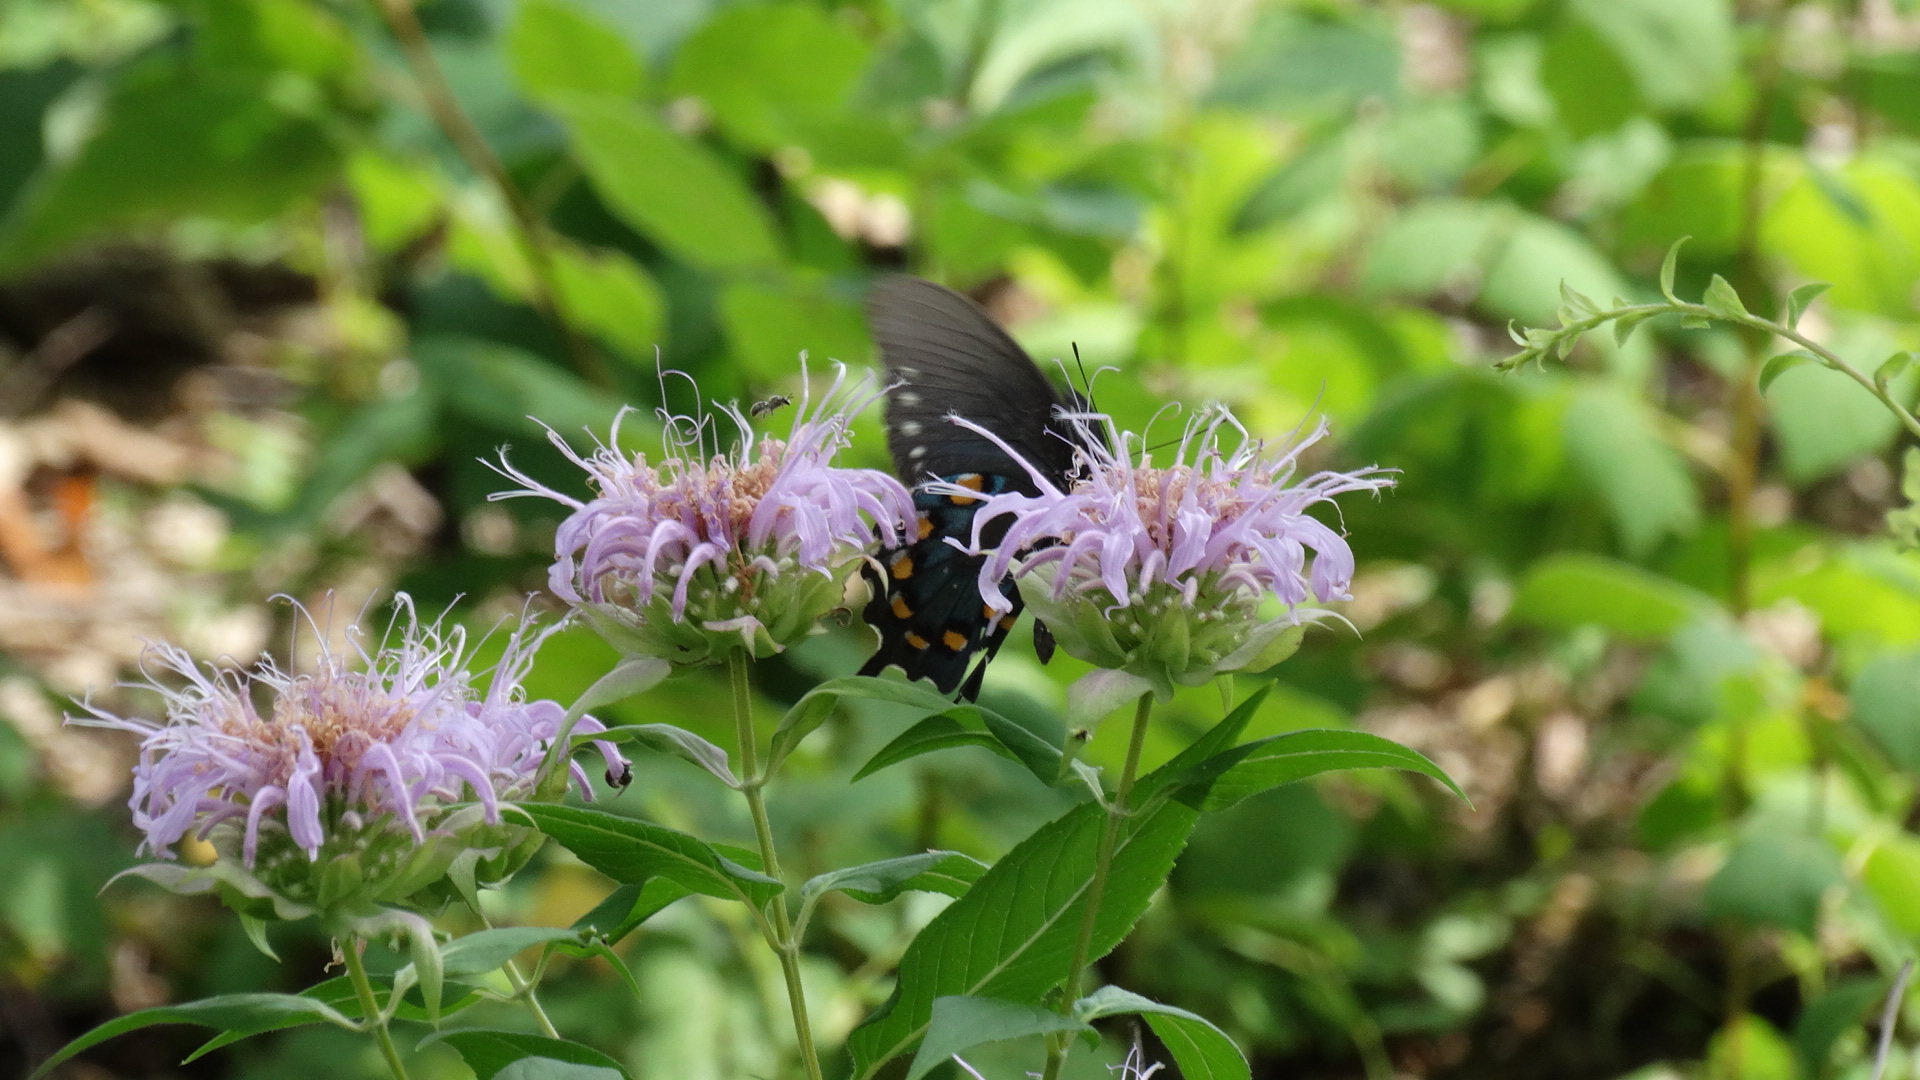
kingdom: Animalia
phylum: Arthropoda
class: Insecta
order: Lepidoptera
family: Papilionidae
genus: Battus
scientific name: Battus philenor
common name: Pipevine swallowtail
